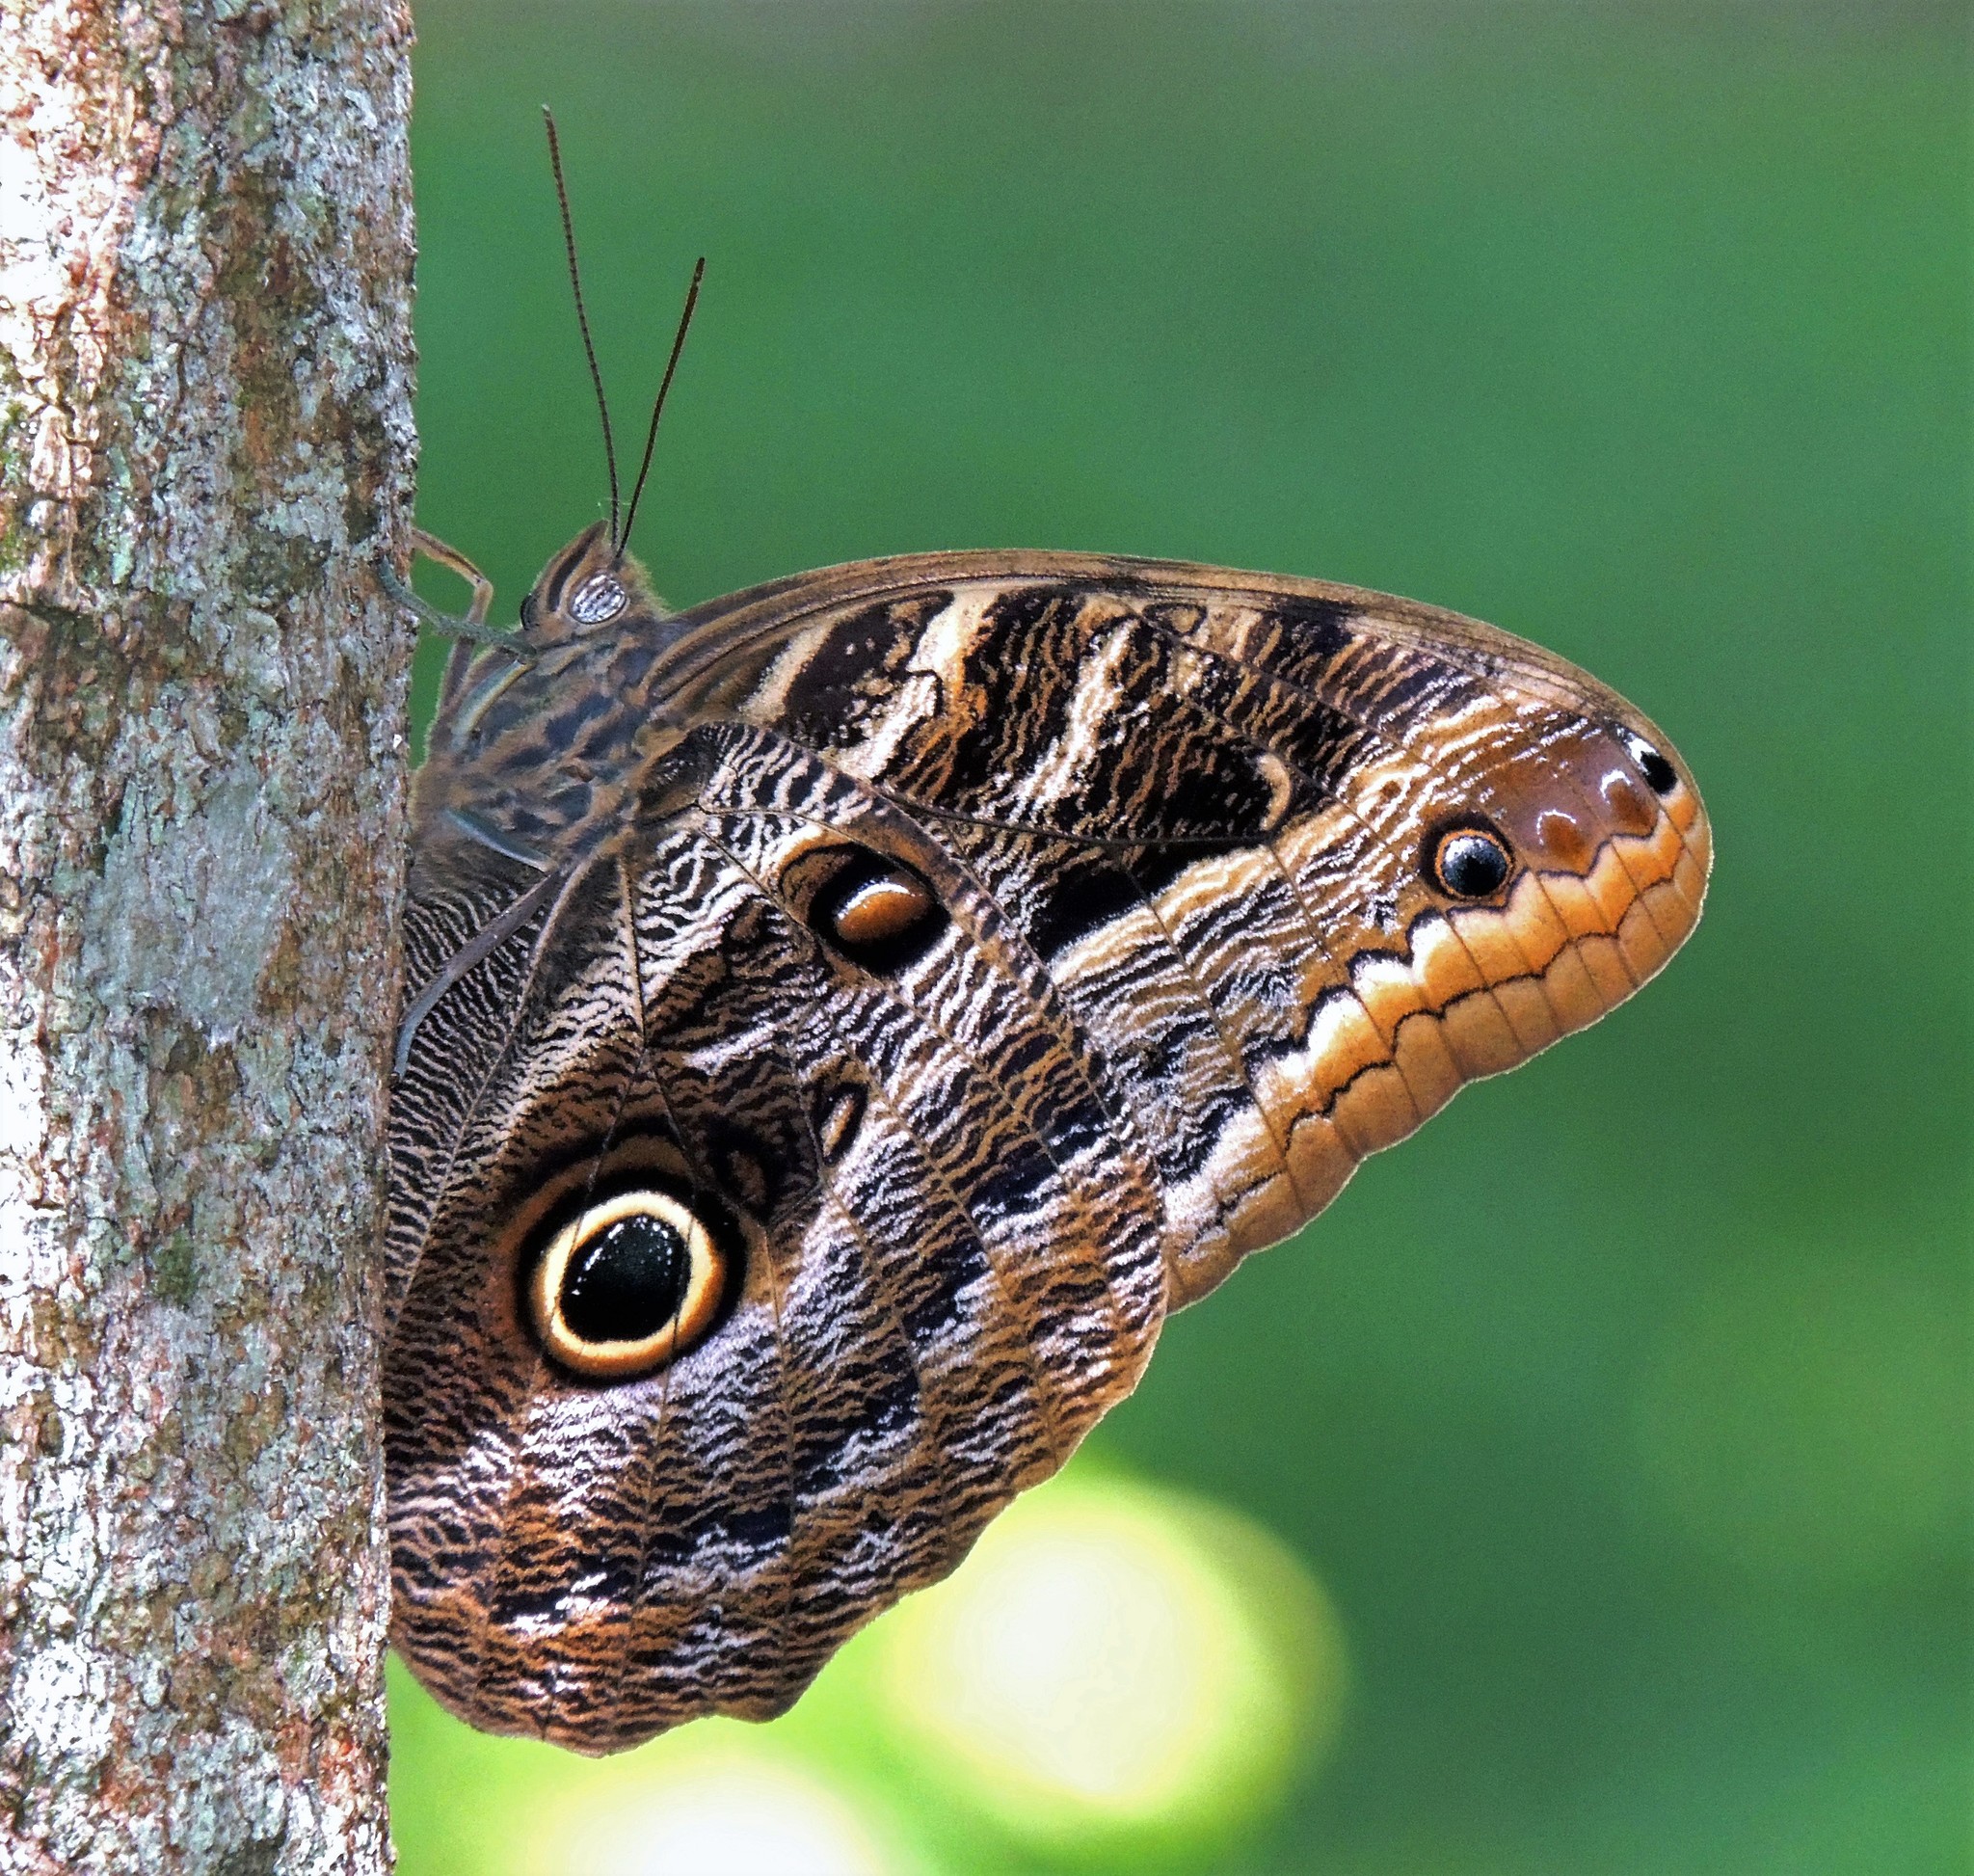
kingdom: Animalia
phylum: Arthropoda
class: Insecta
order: Lepidoptera
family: Nymphalidae
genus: Caligo
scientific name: Caligo illioneus
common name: Dusky owl-butterfly
